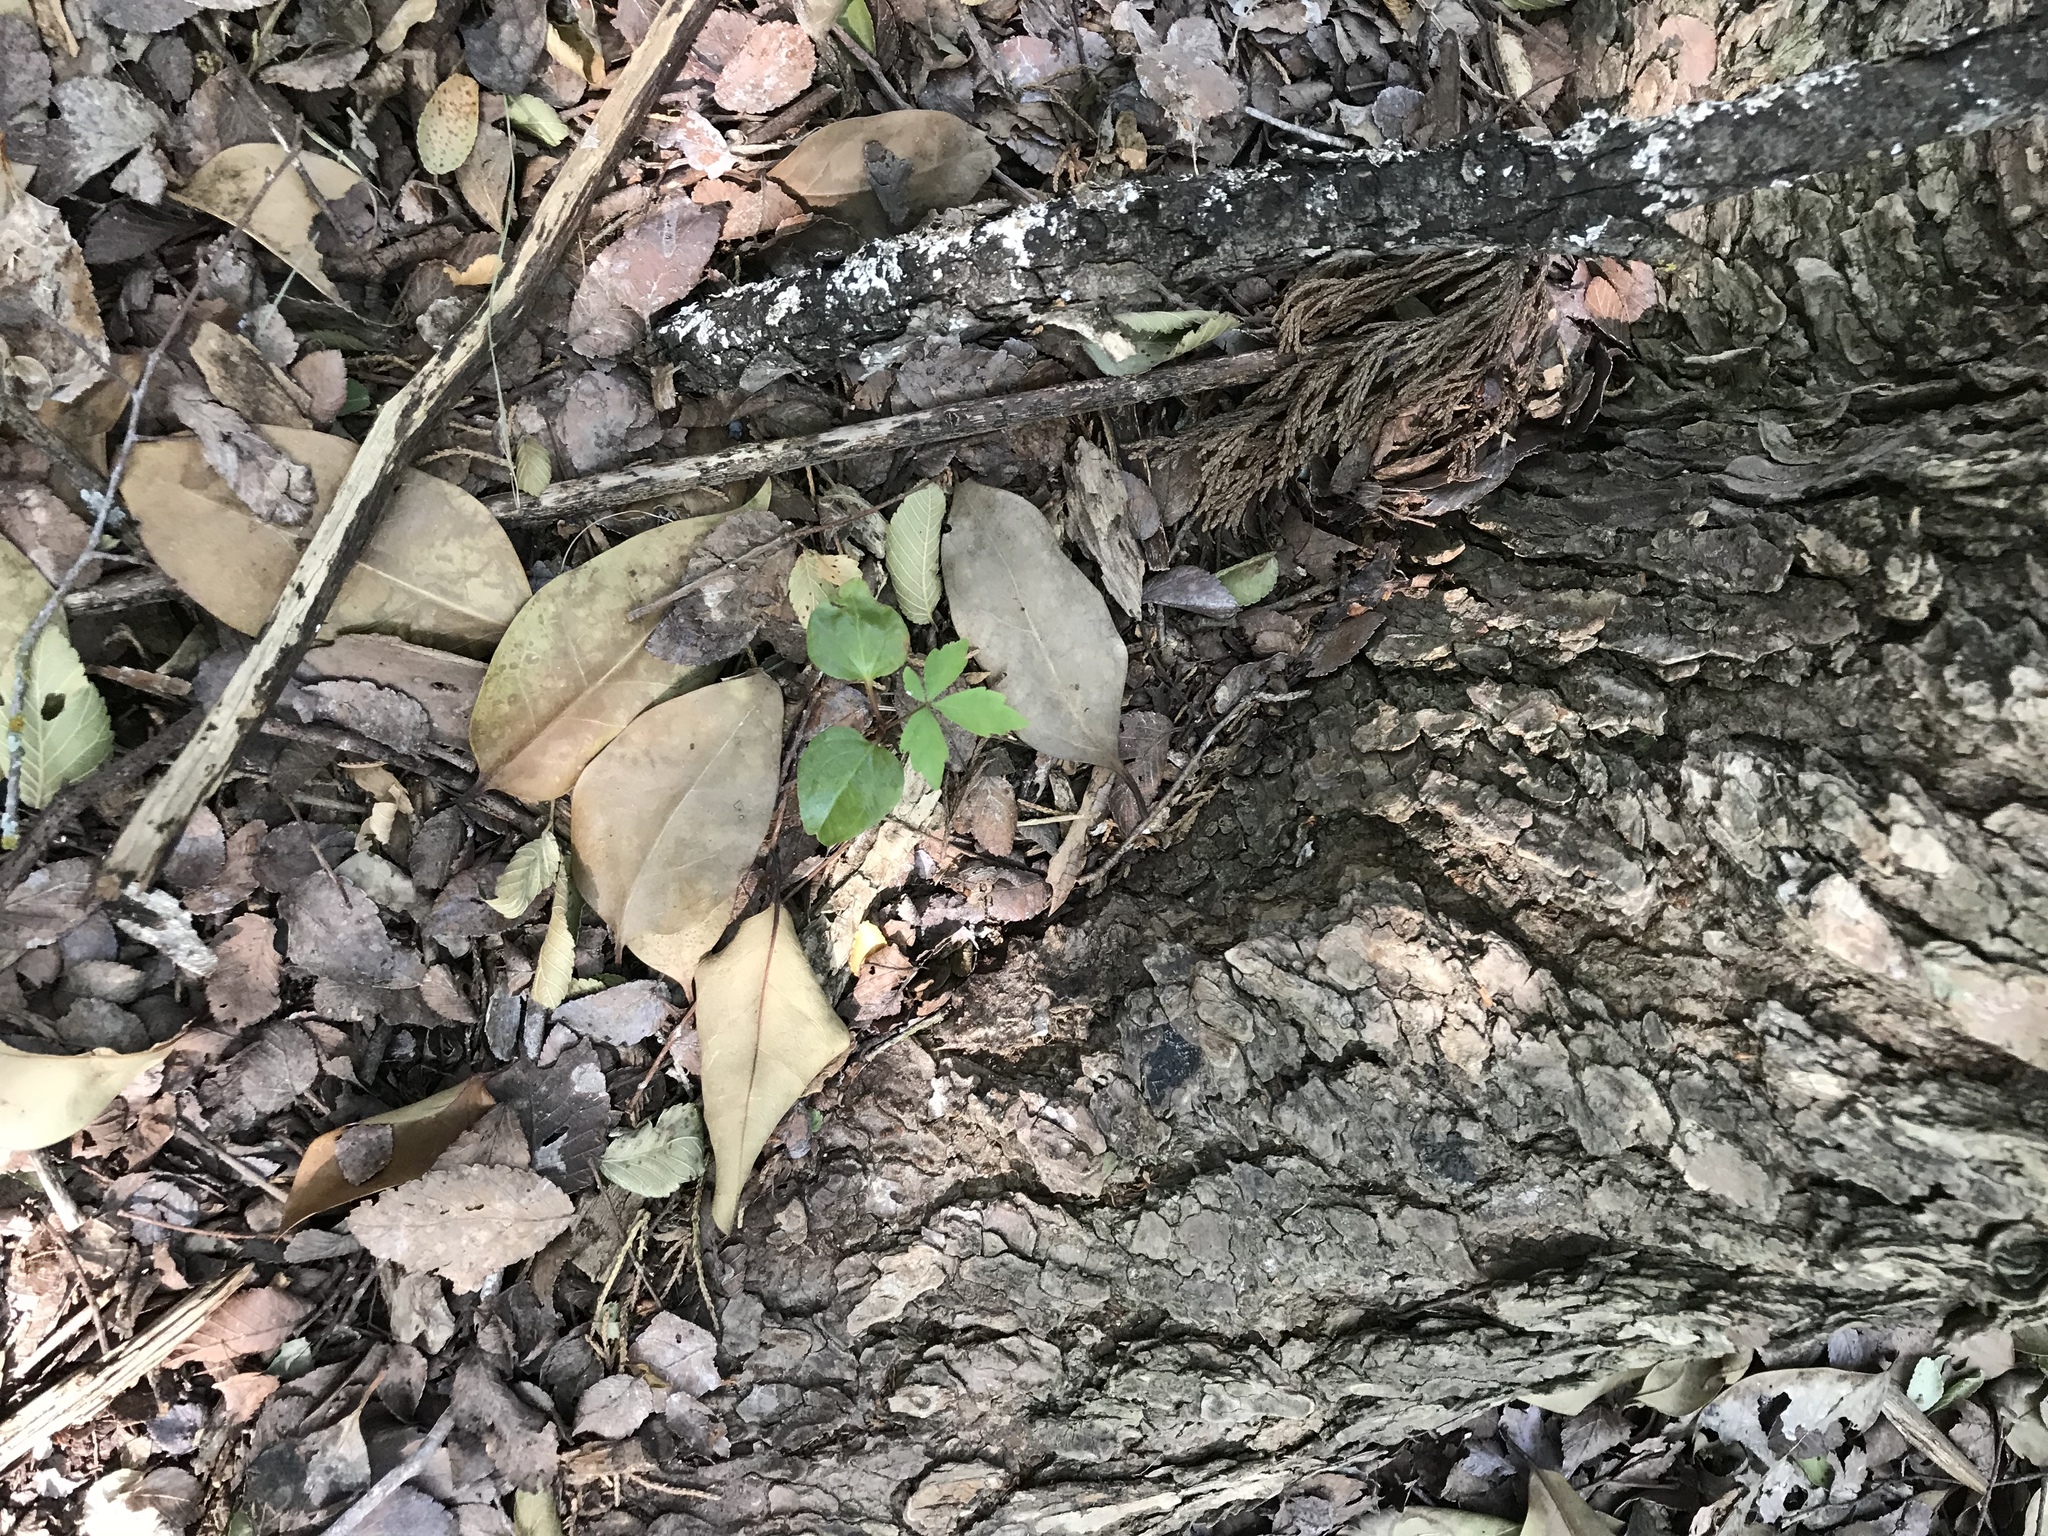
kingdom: Plantae
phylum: Tracheophyta
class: Magnoliopsida
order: Sapindales
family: Anacardiaceae
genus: Toxicodendron
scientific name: Toxicodendron radicans
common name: Poison ivy
